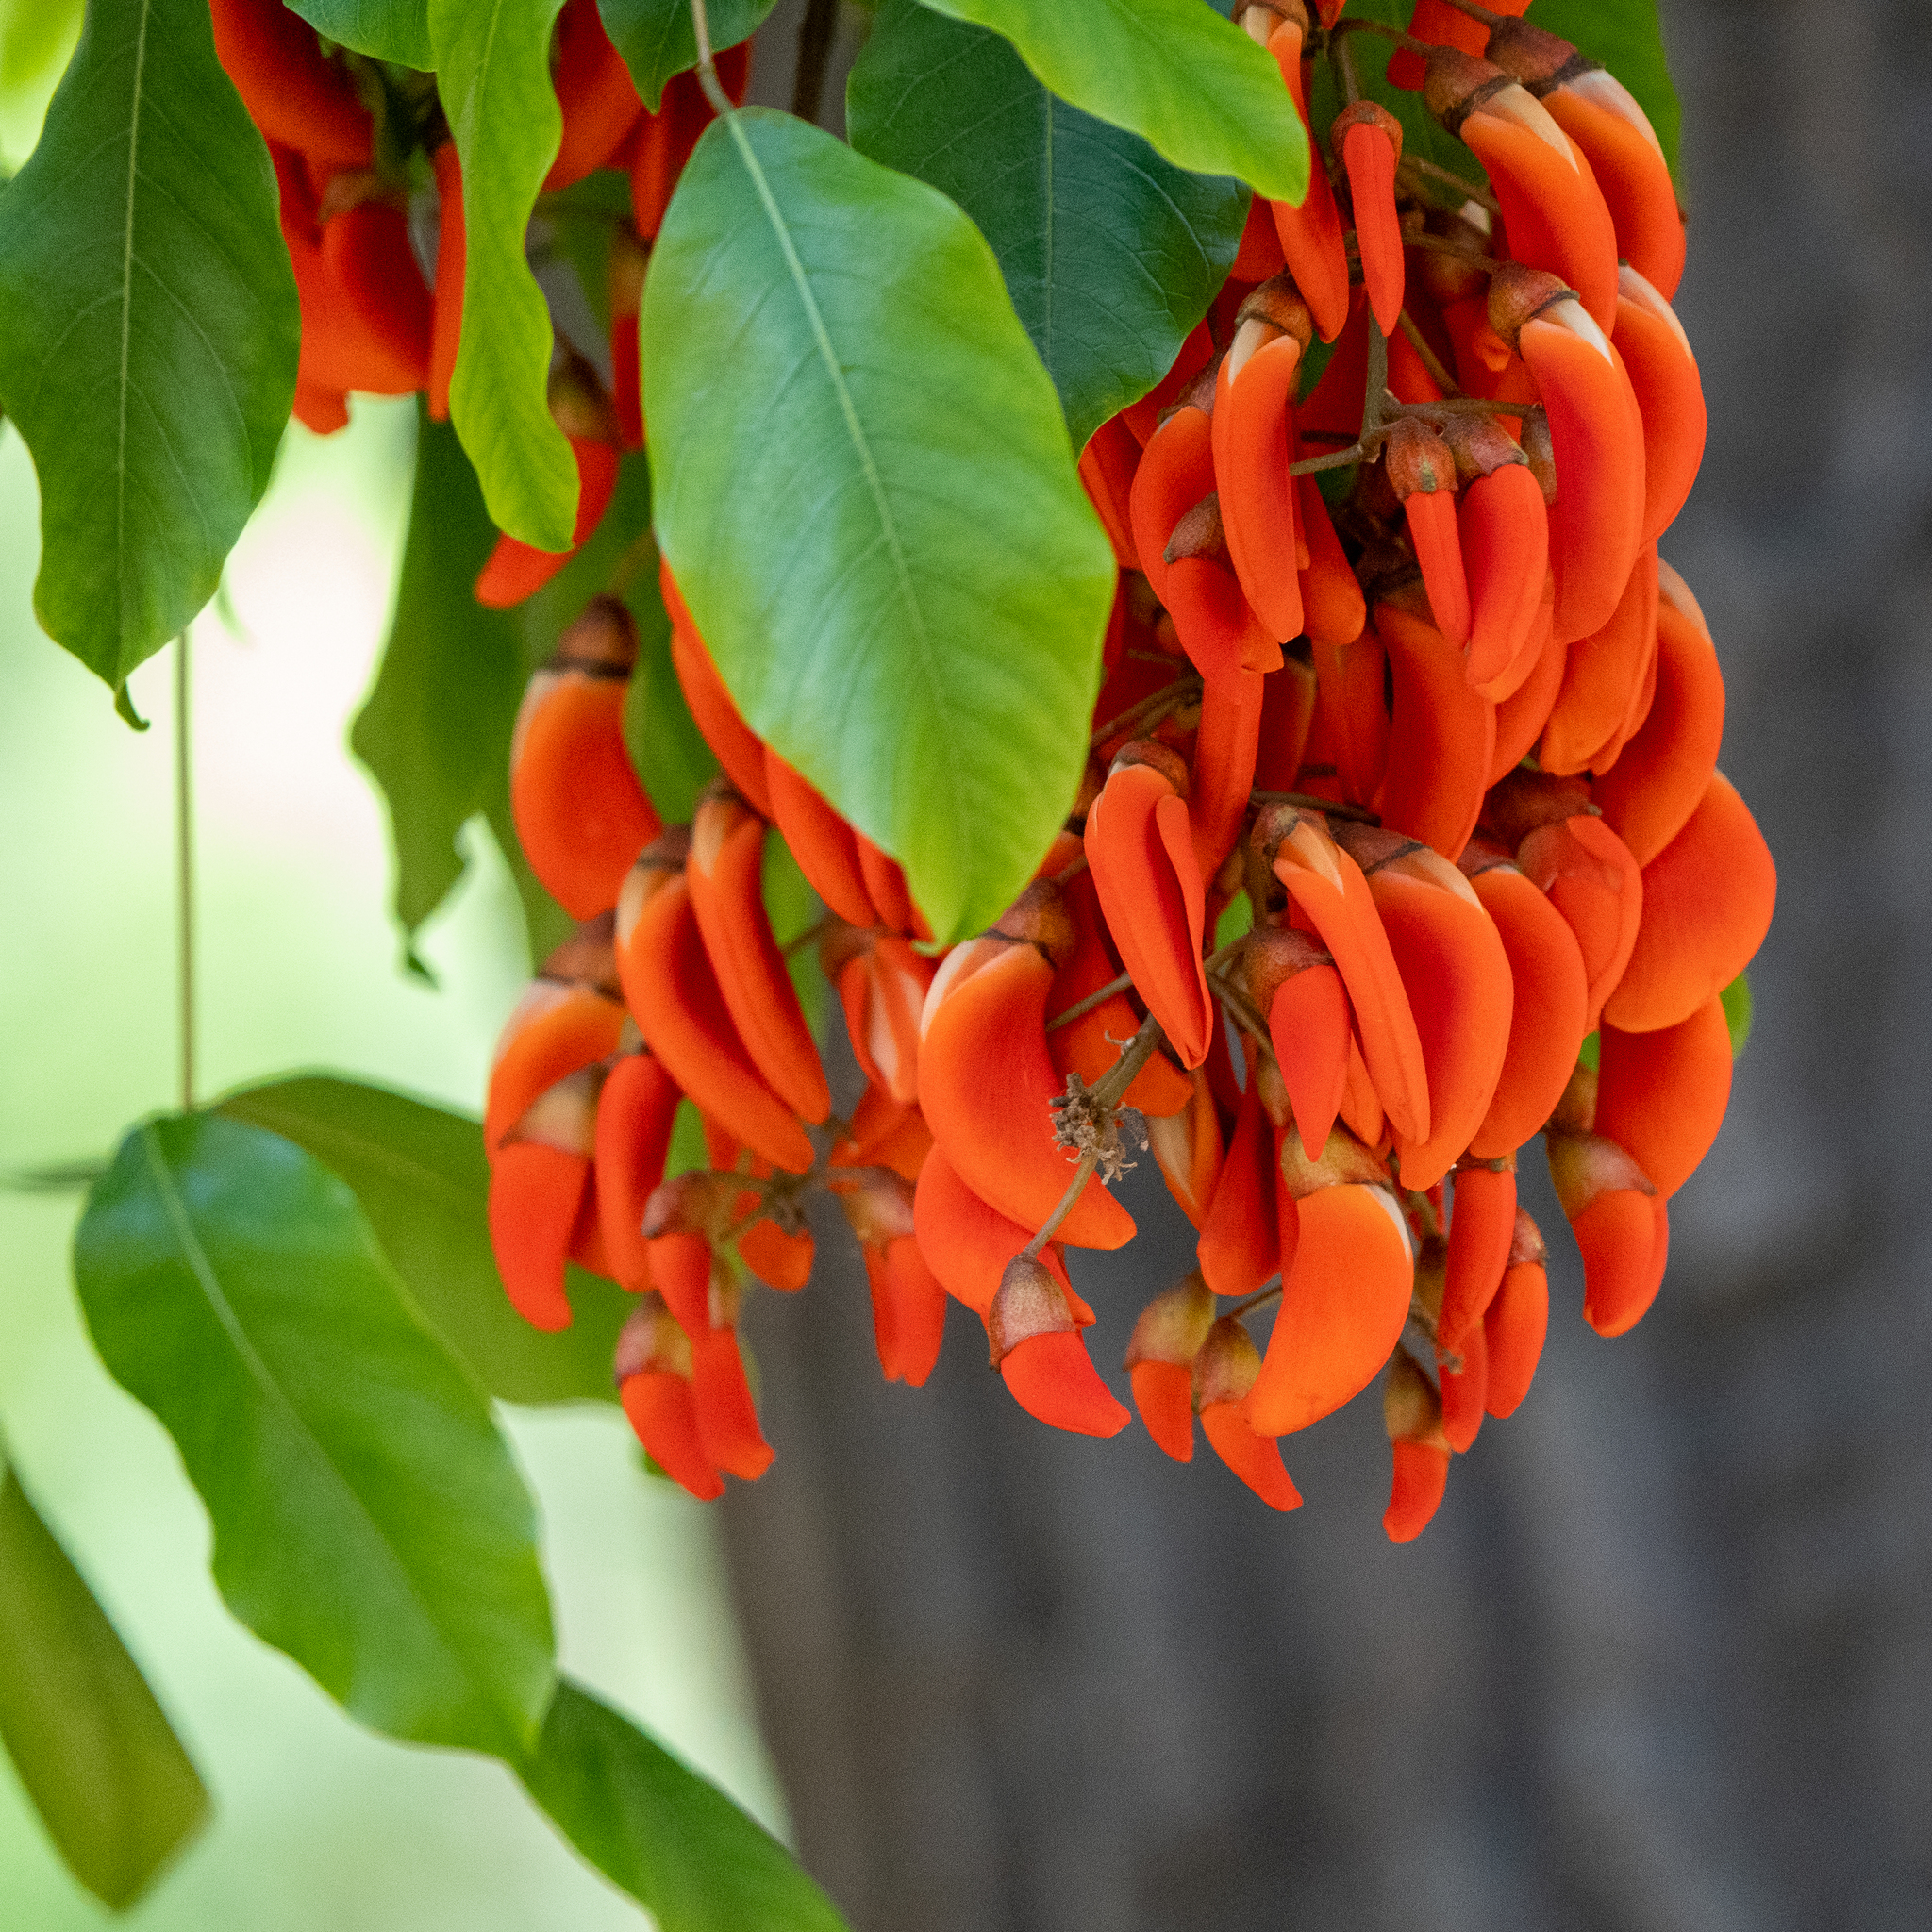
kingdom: Plantae
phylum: Tracheophyta
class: Magnoliopsida
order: Fabales
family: Fabaceae
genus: Erythrina
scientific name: Erythrina crista-galli
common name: Cockspur coral tree
